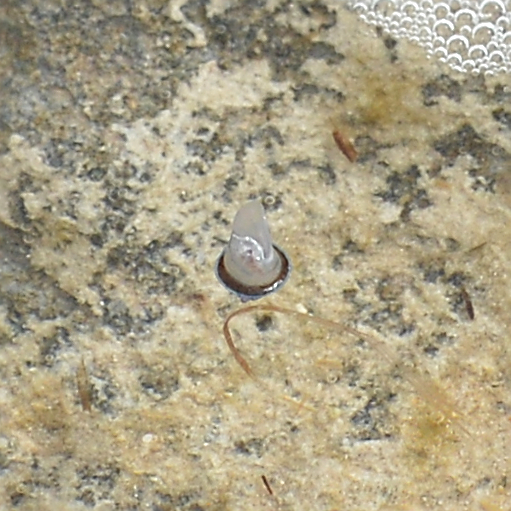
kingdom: Animalia
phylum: Cnidaria
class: Hydrozoa
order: Anthoathecata
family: Porpitidae
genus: Velella
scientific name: Velella velella
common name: By-the-wind-sailor
